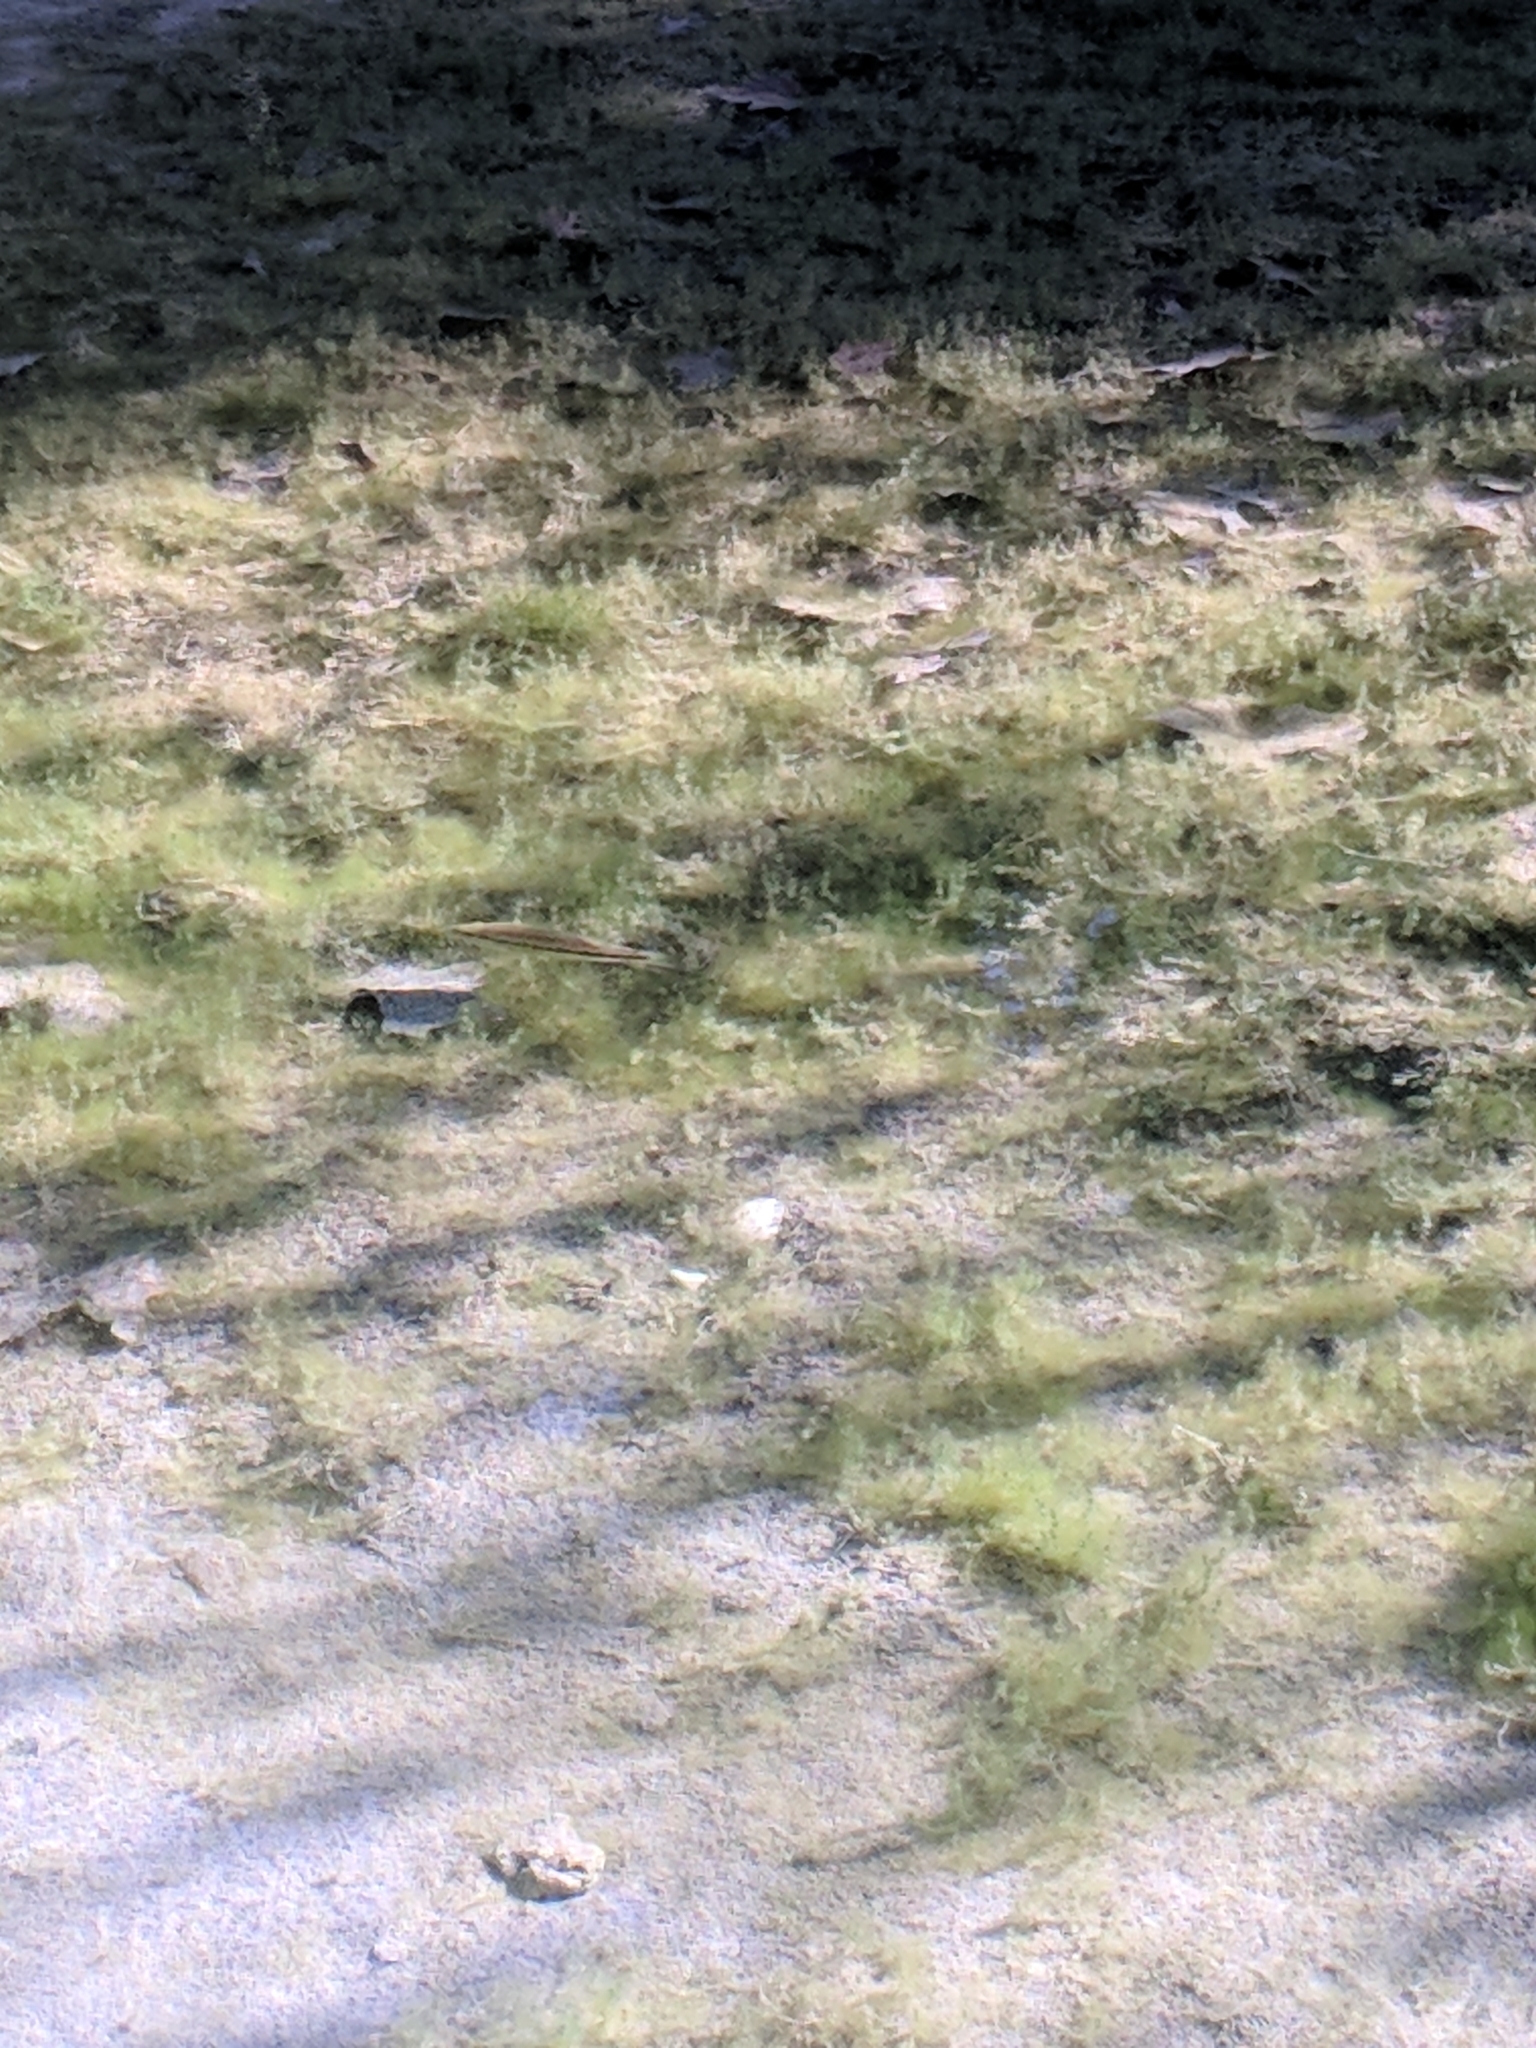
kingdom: Animalia
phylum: Chordata
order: Perciformes
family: Centrarchidae
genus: Micropterus
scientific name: Micropterus
